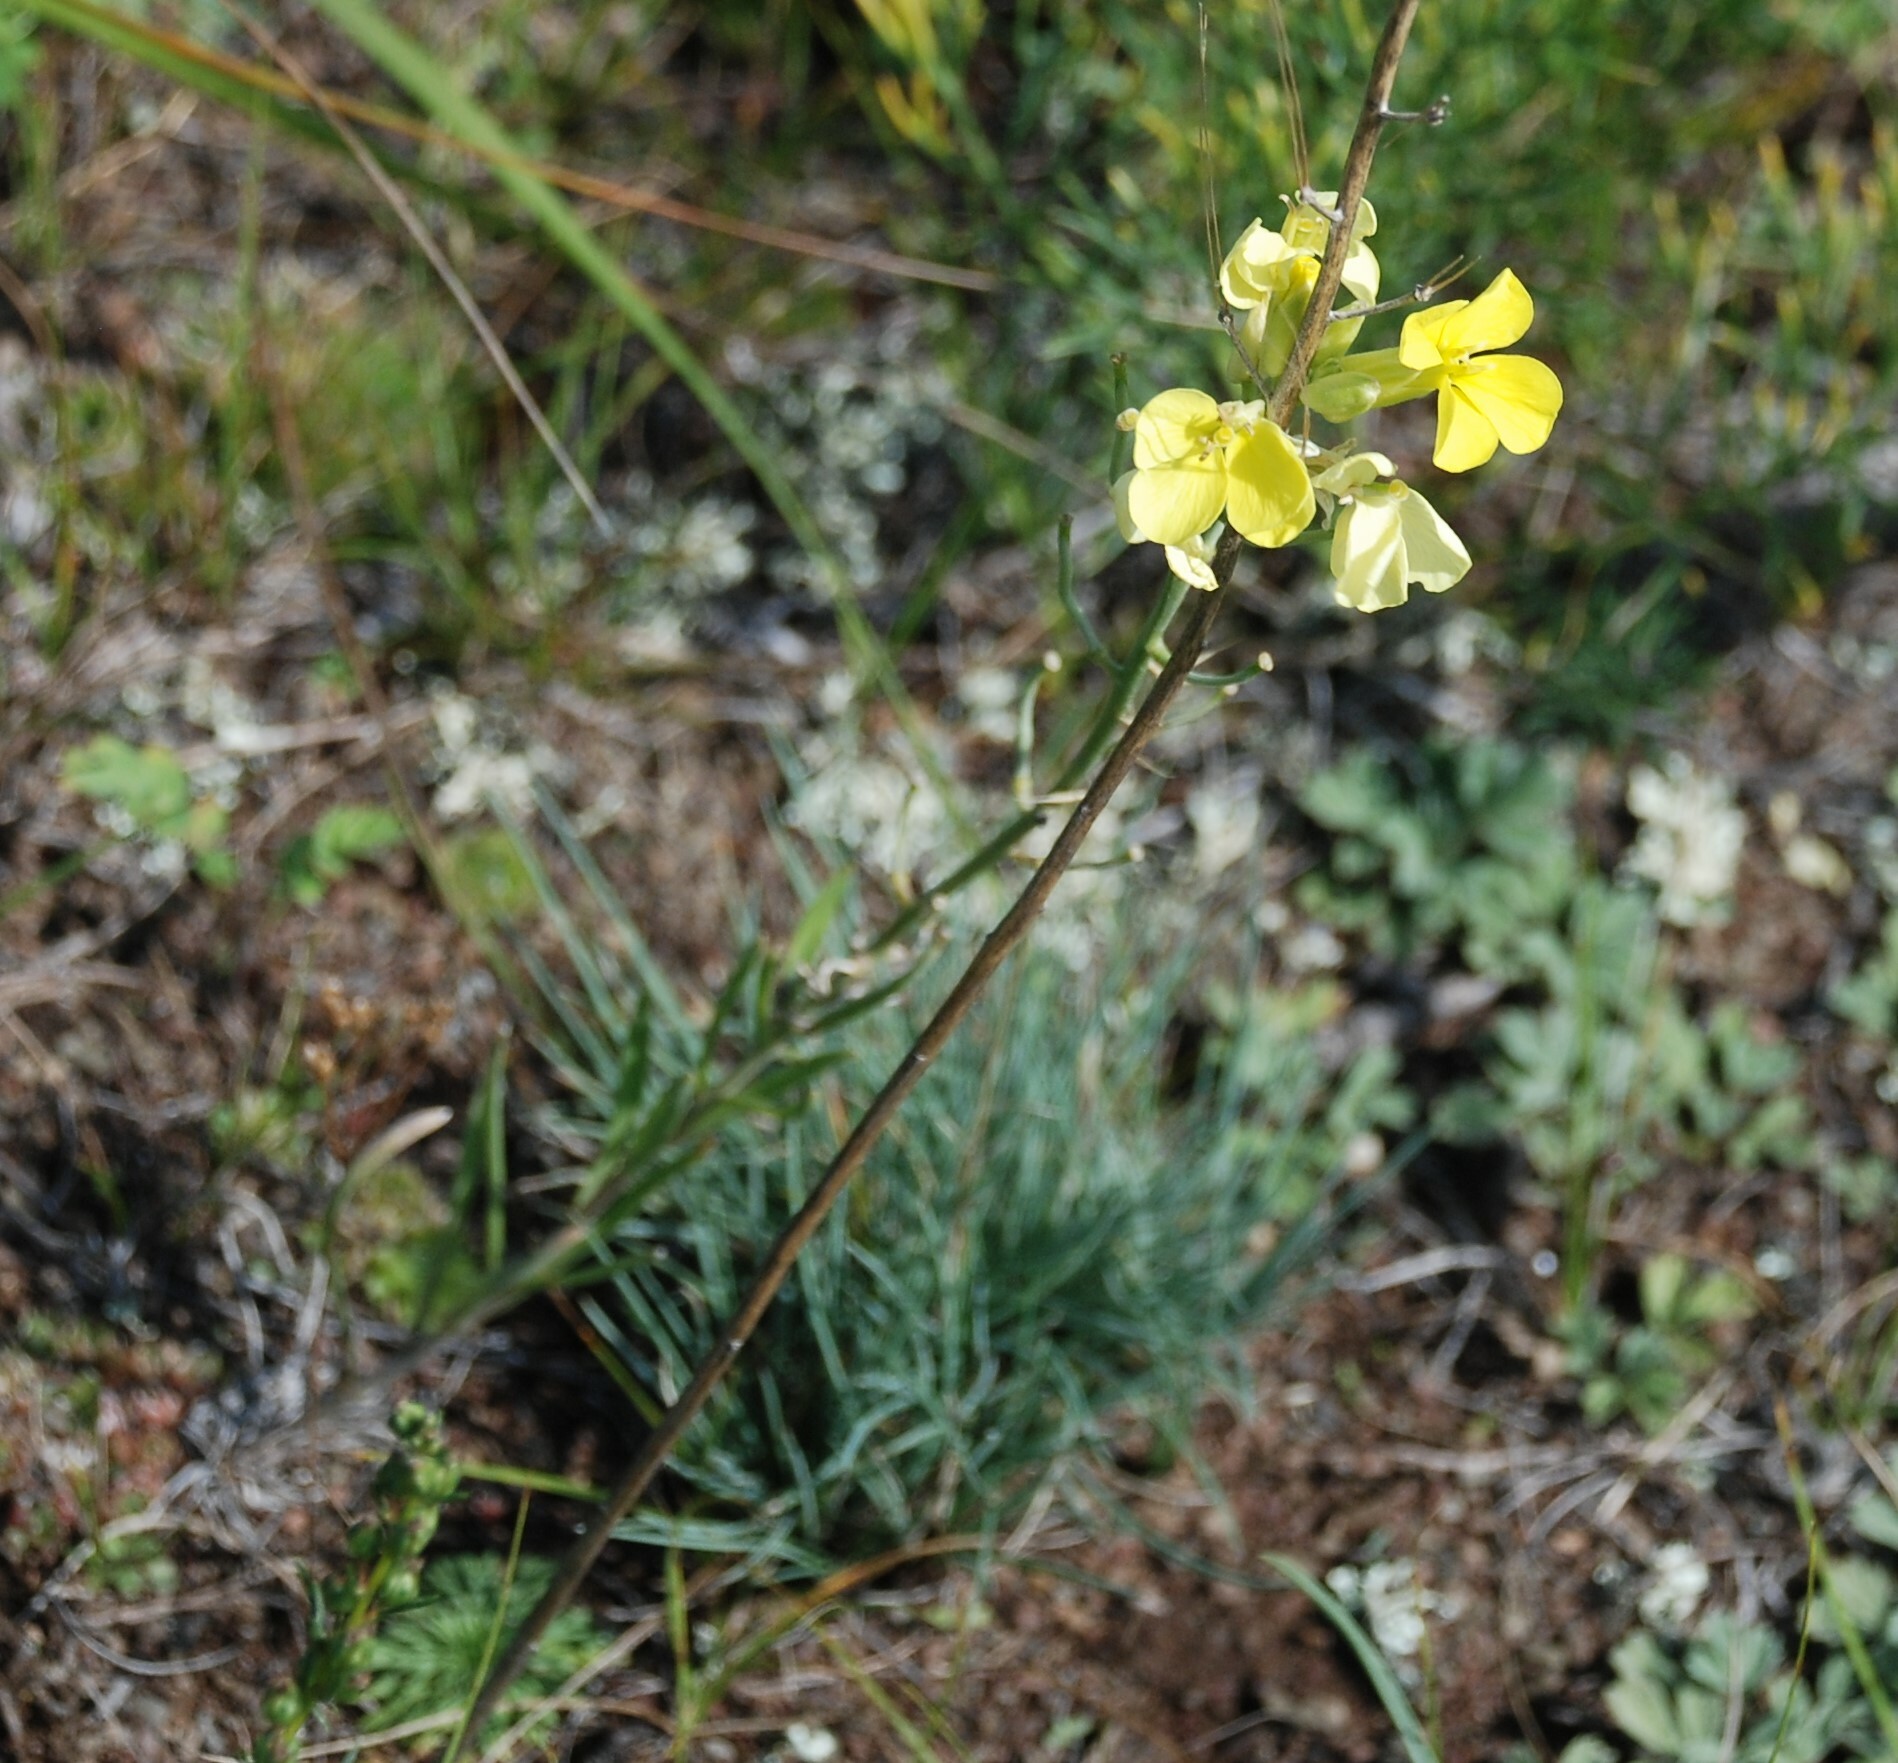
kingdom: Plantae
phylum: Tracheophyta
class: Magnoliopsida
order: Brassicales
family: Brassicaceae
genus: Erysimum
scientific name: Erysimum flavum
